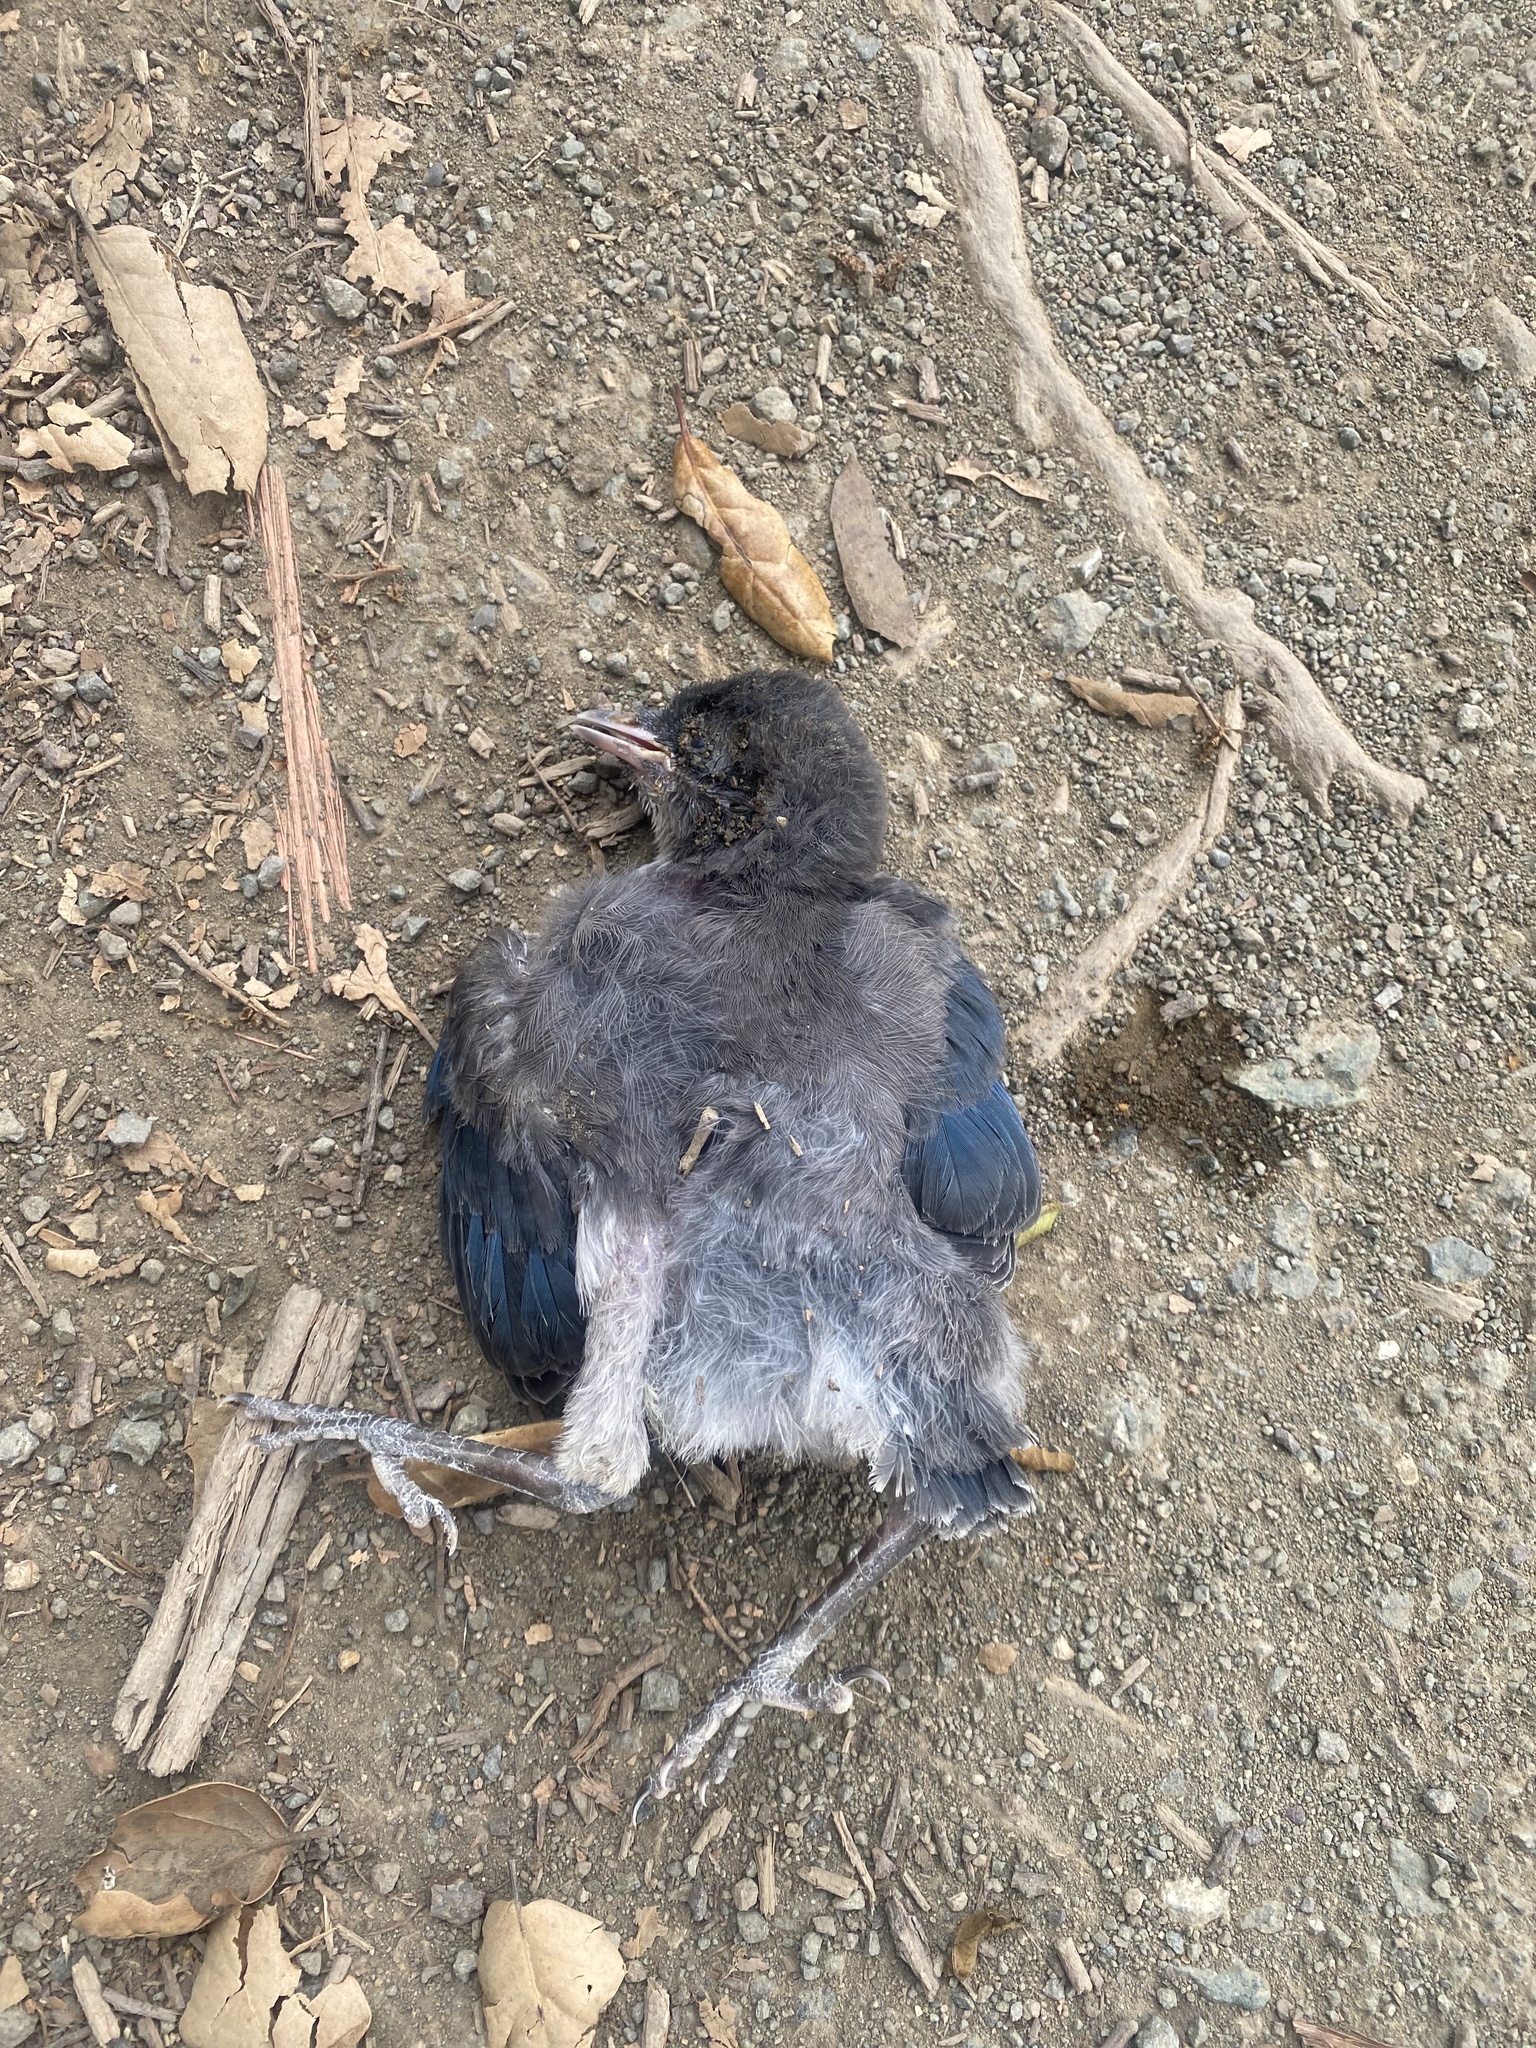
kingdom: Animalia
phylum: Chordata
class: Aves
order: Passeriformes
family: Corvidae
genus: Aphelocoma
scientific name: Aphelocoma californica
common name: California scrub-jay
